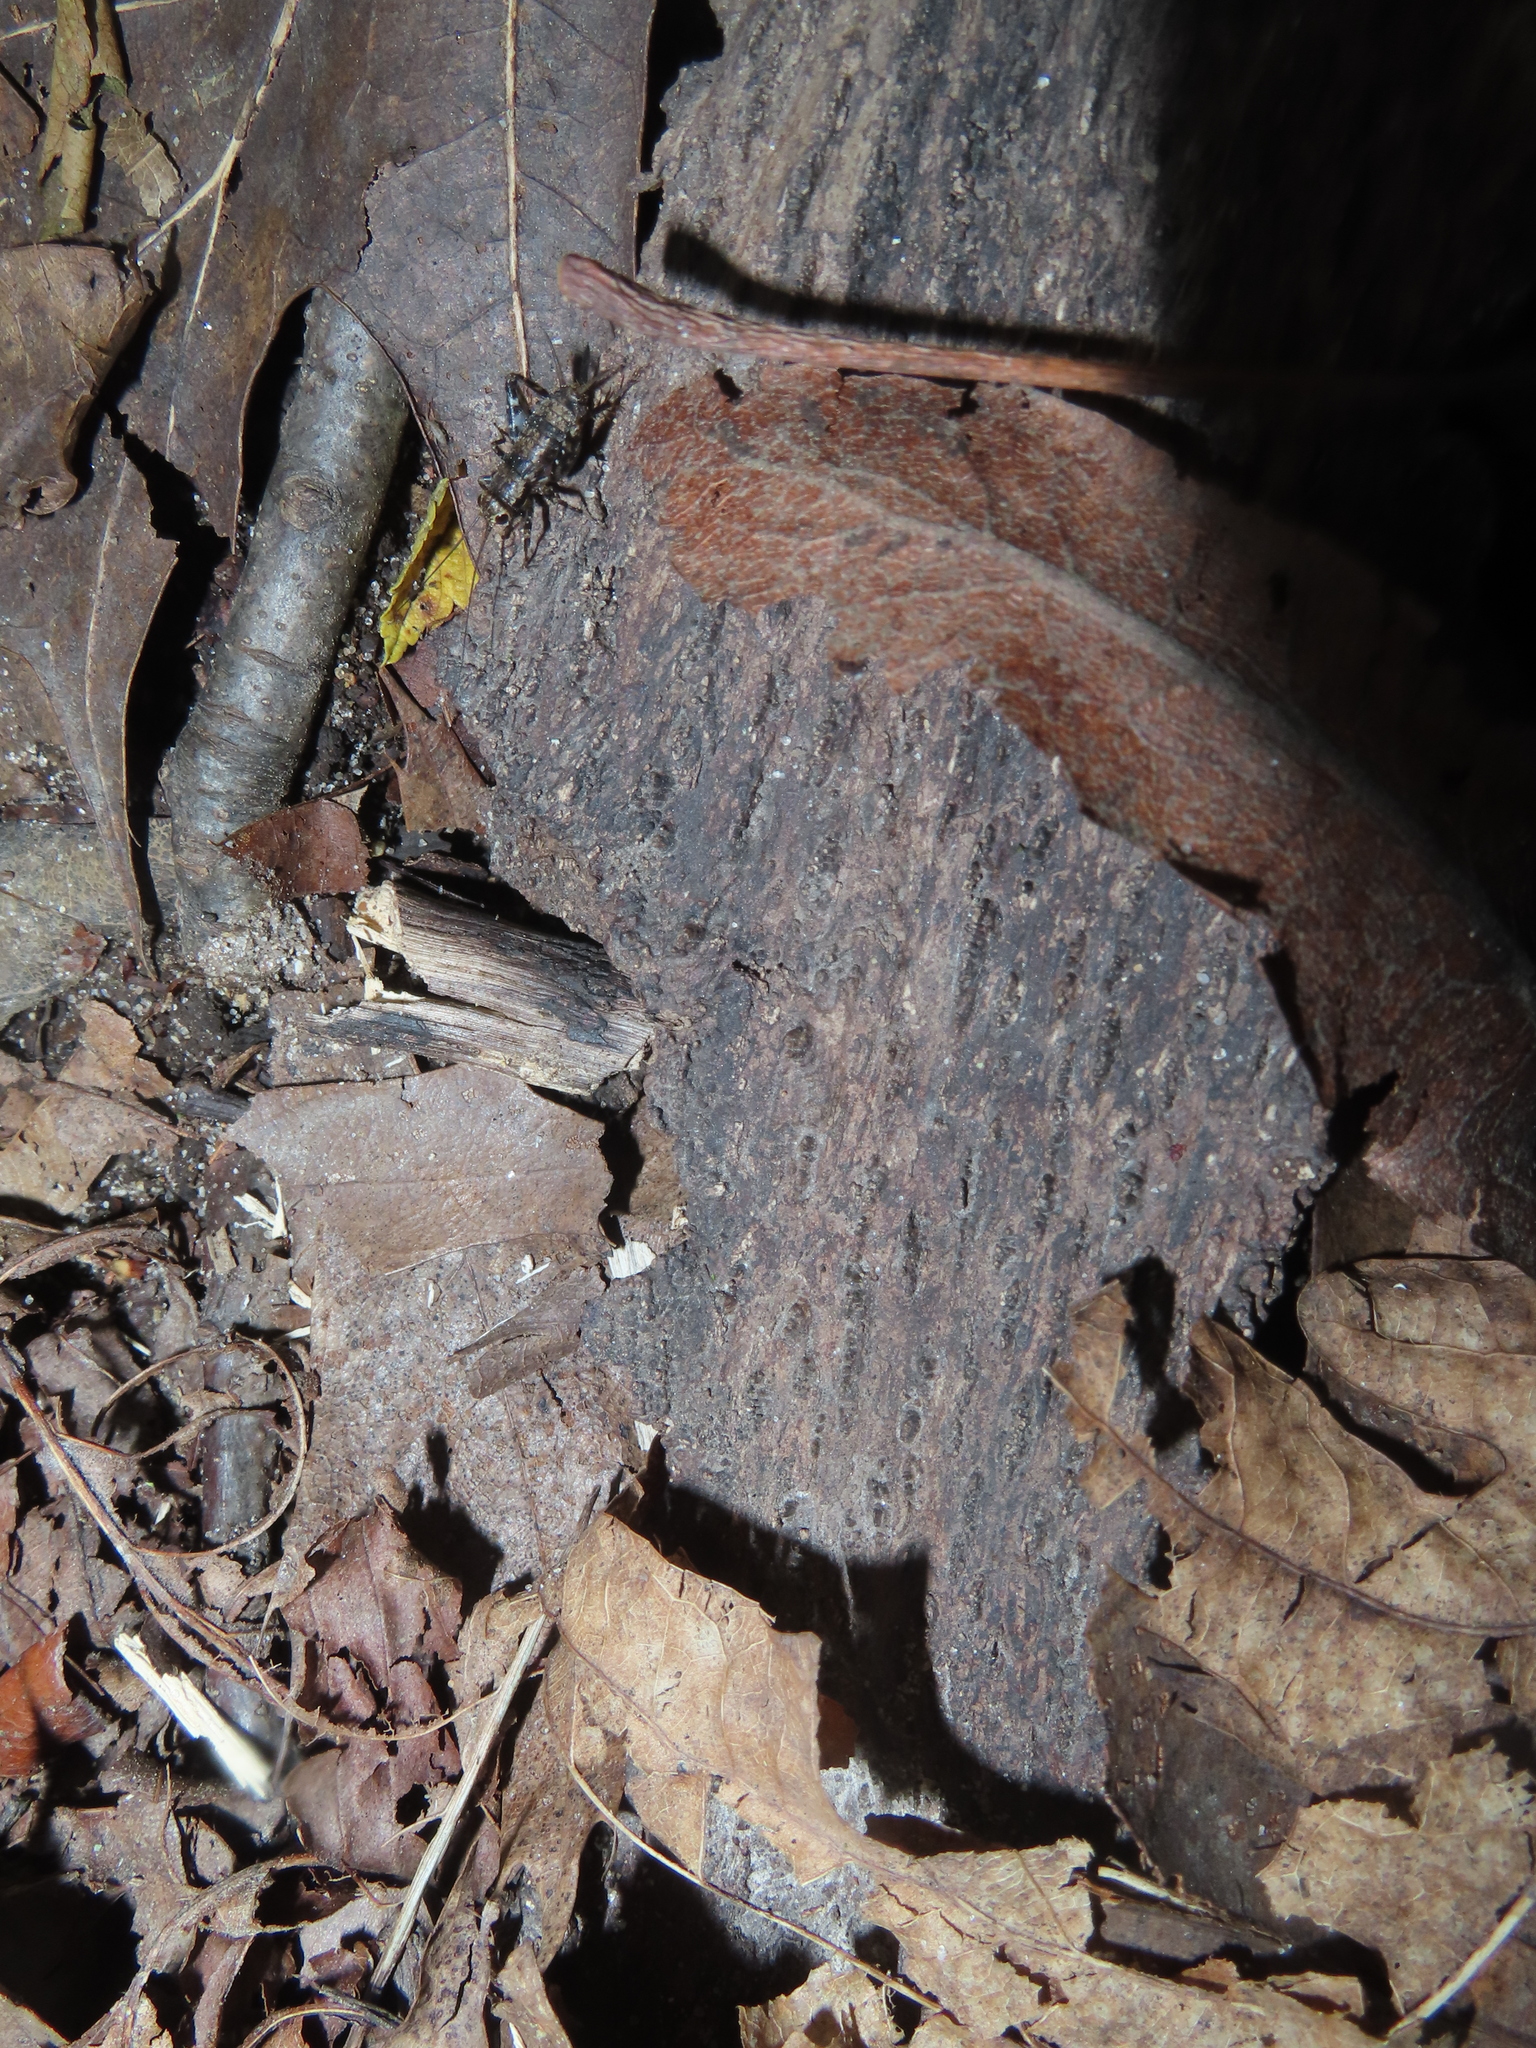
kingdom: Animalia
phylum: Arthropoda
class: Insecta
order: Orthoptera
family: Trigonidiidae
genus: Allonemobius
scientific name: Allonemobius maculatus
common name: Larger spotted ground cricket
